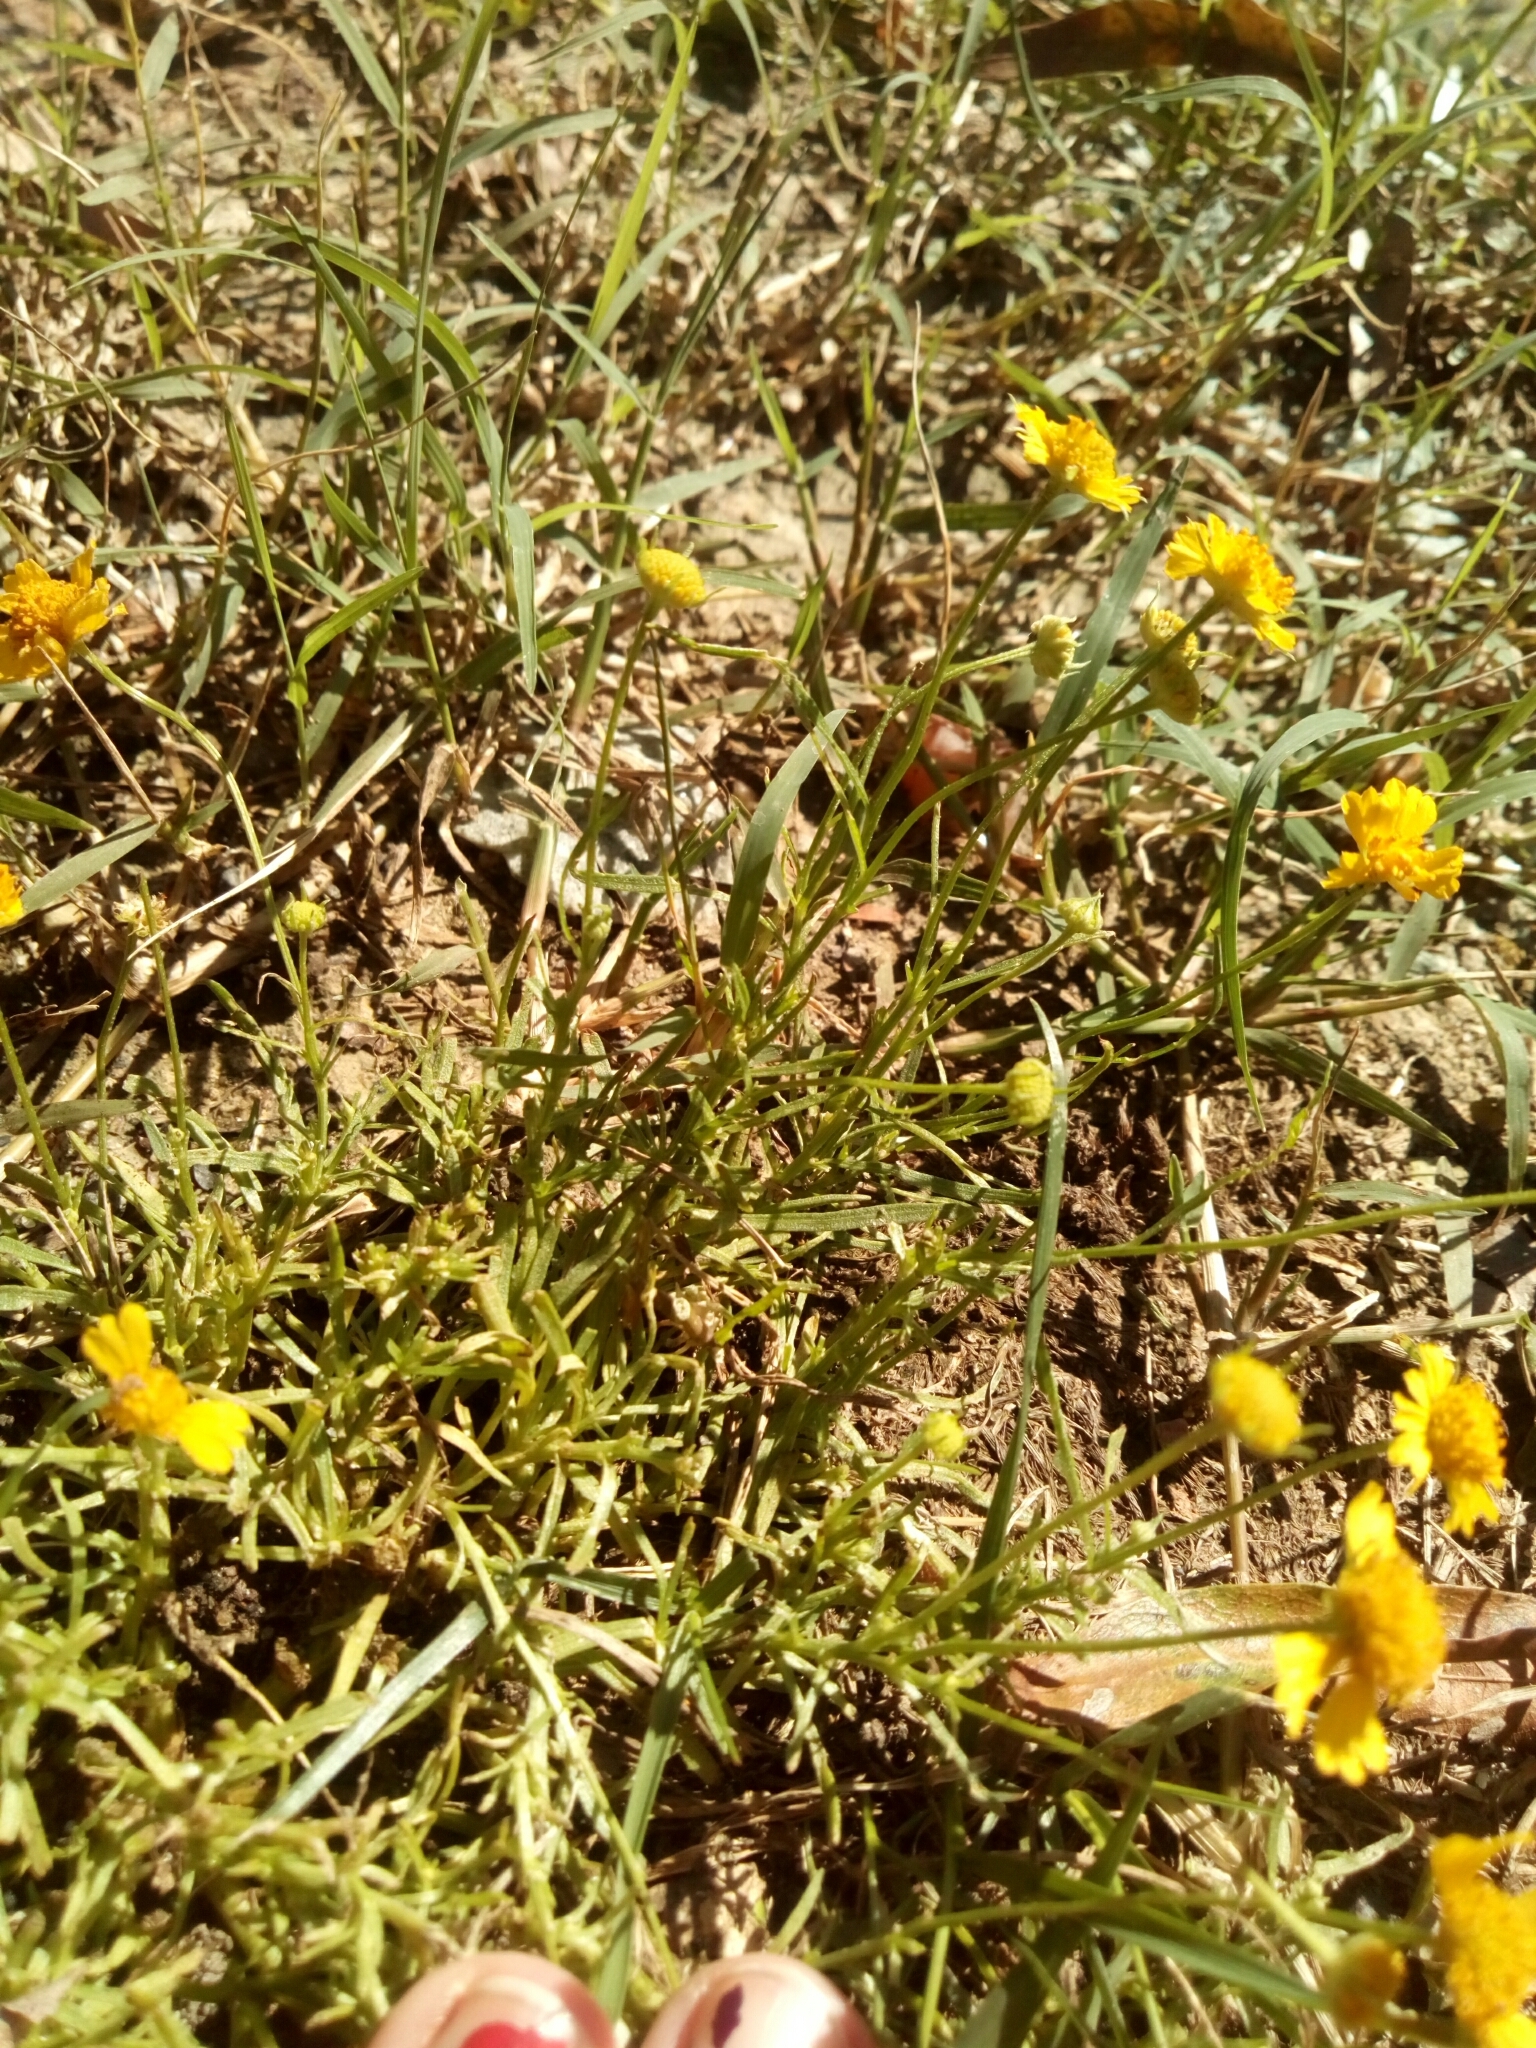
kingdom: Plantae
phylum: Tracheophyta
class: Magnoliopsida
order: Asterales
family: Asteraceae
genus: Helenium
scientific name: Helenium amarum
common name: Bitter sneezeweed
